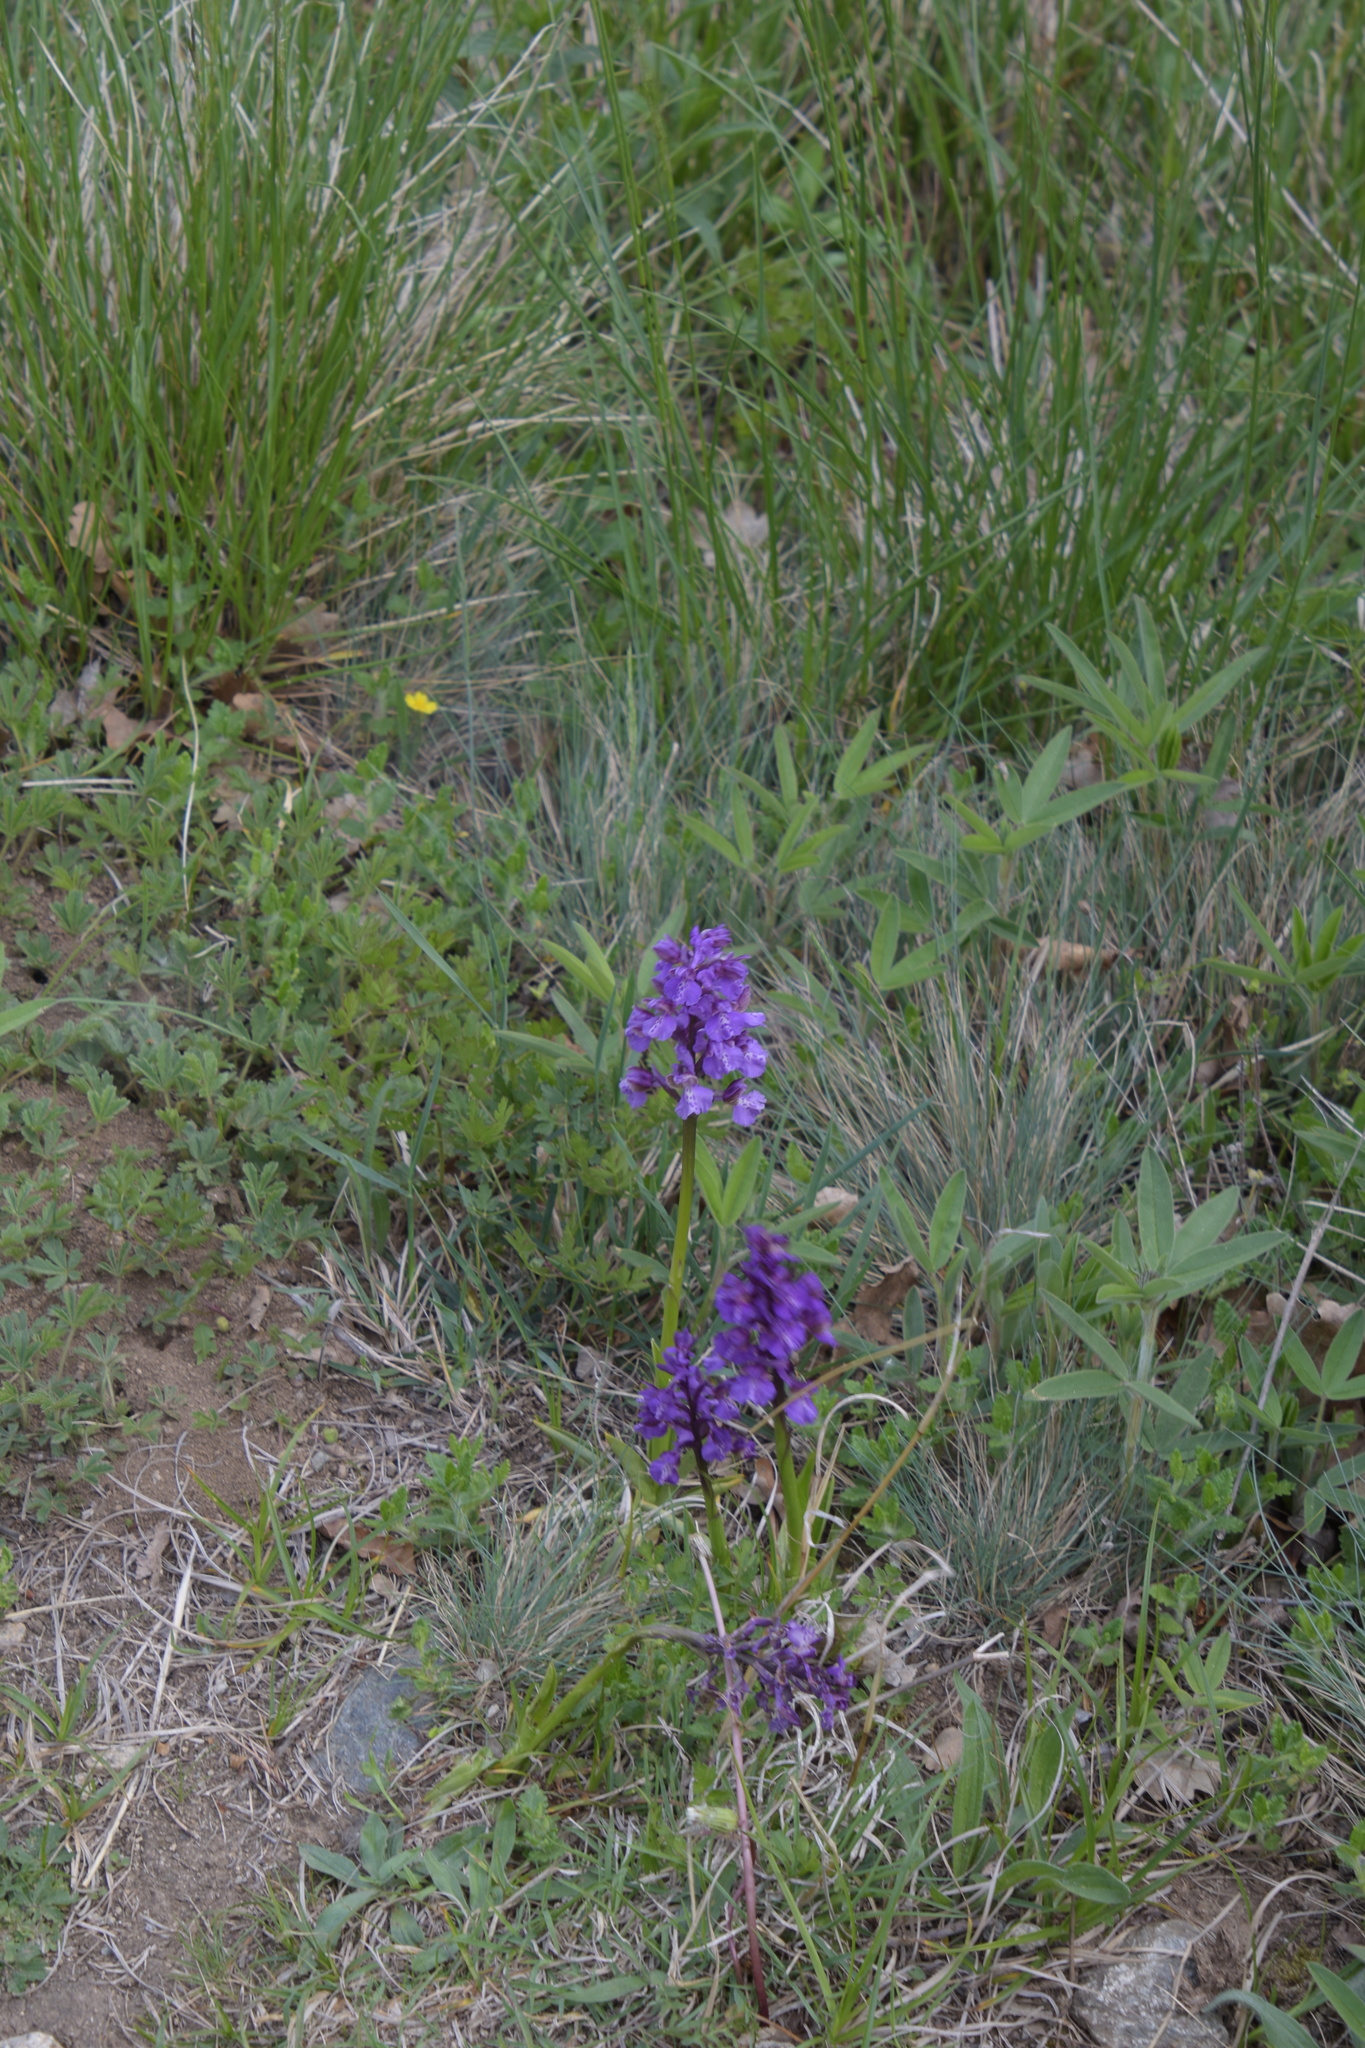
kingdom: Plantae
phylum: Tracheophyta
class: Liliopsida
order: Asparagales
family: Orchidaceae
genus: Anacamptis
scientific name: Anacamptis morio
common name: Green-winged orchid
